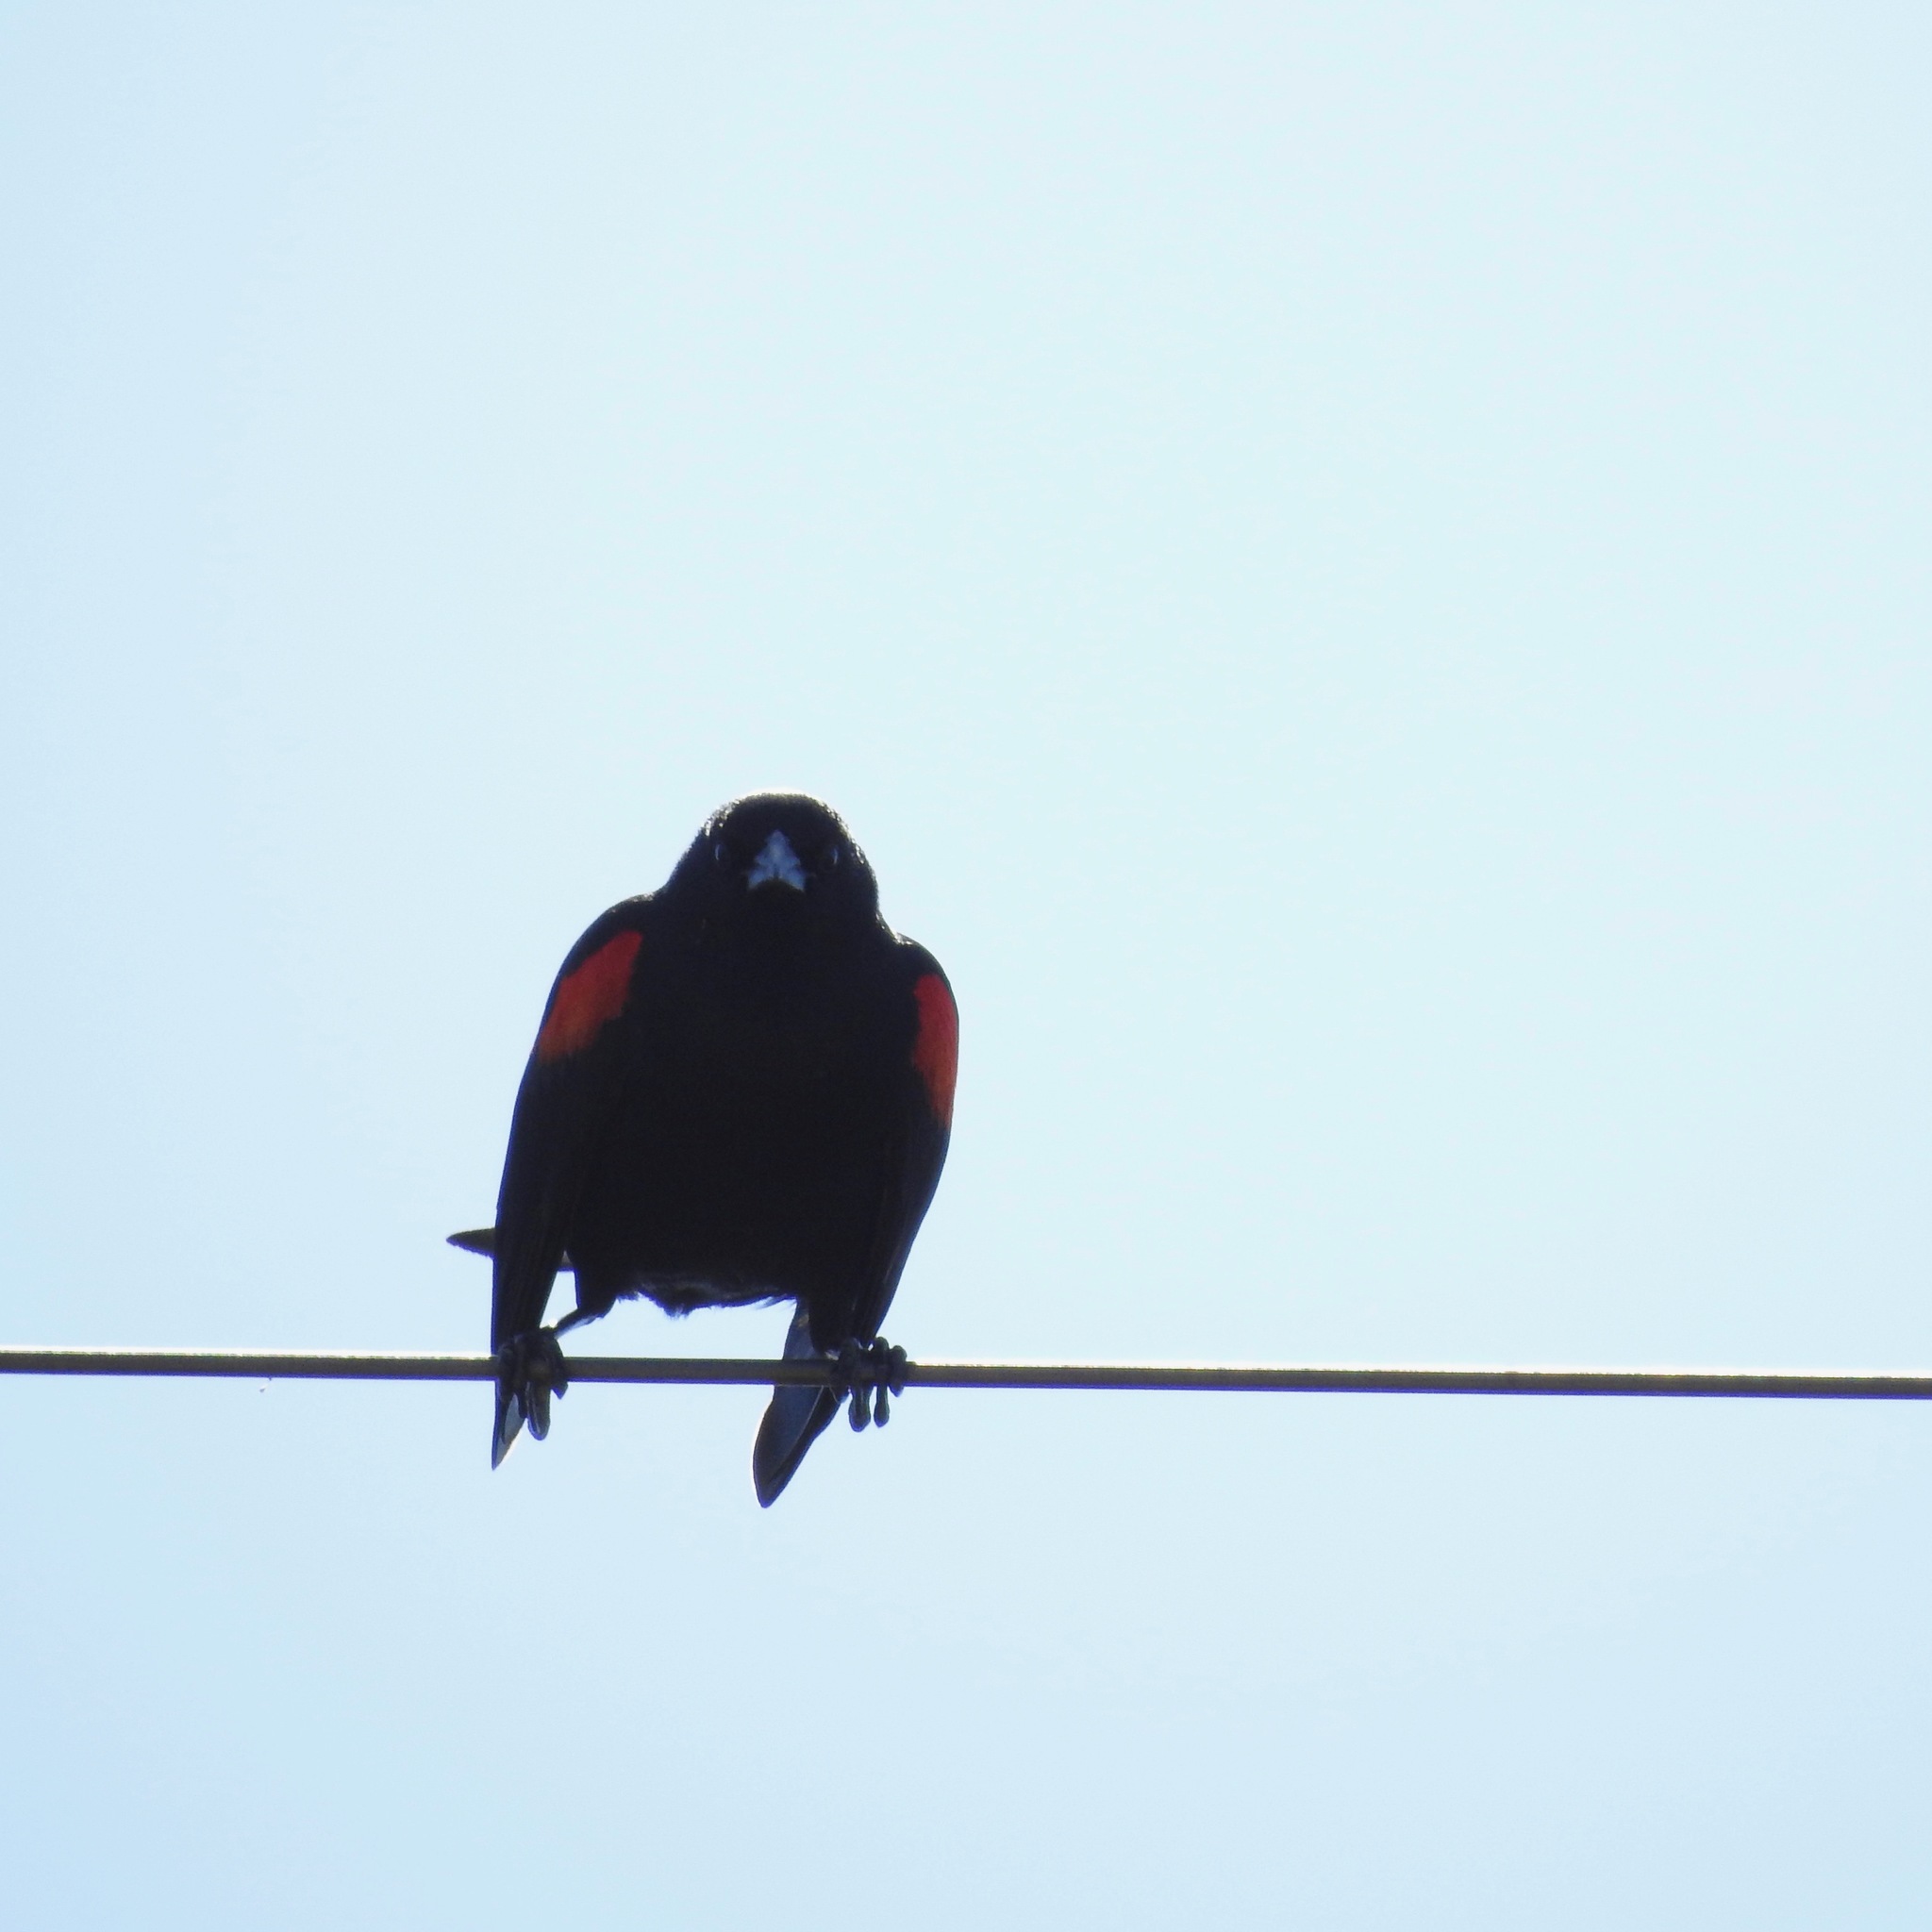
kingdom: Animalia
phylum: Chordata
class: Aves
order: Passeriformes
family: Icteridae
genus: Agelaius
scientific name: Agelaius phoeniceus
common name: Red-winged blackbird
